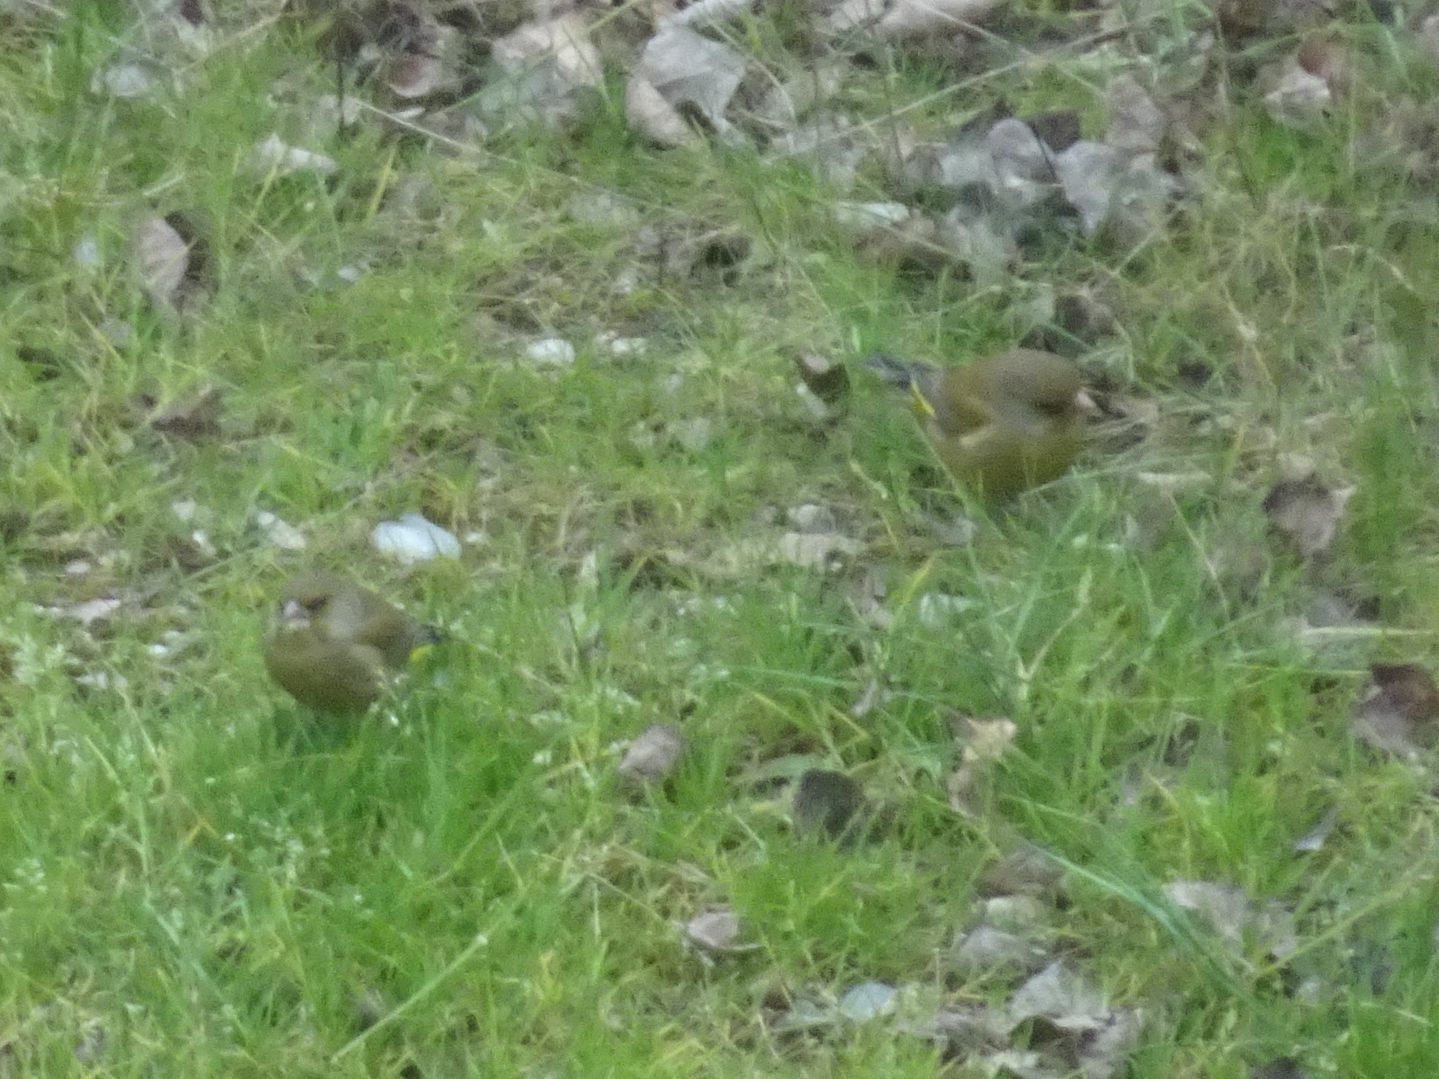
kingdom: Plantae
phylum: Tracheophyta
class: Liliopsida
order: Poales
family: Poaceae
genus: Chloris
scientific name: Chloris chloris
